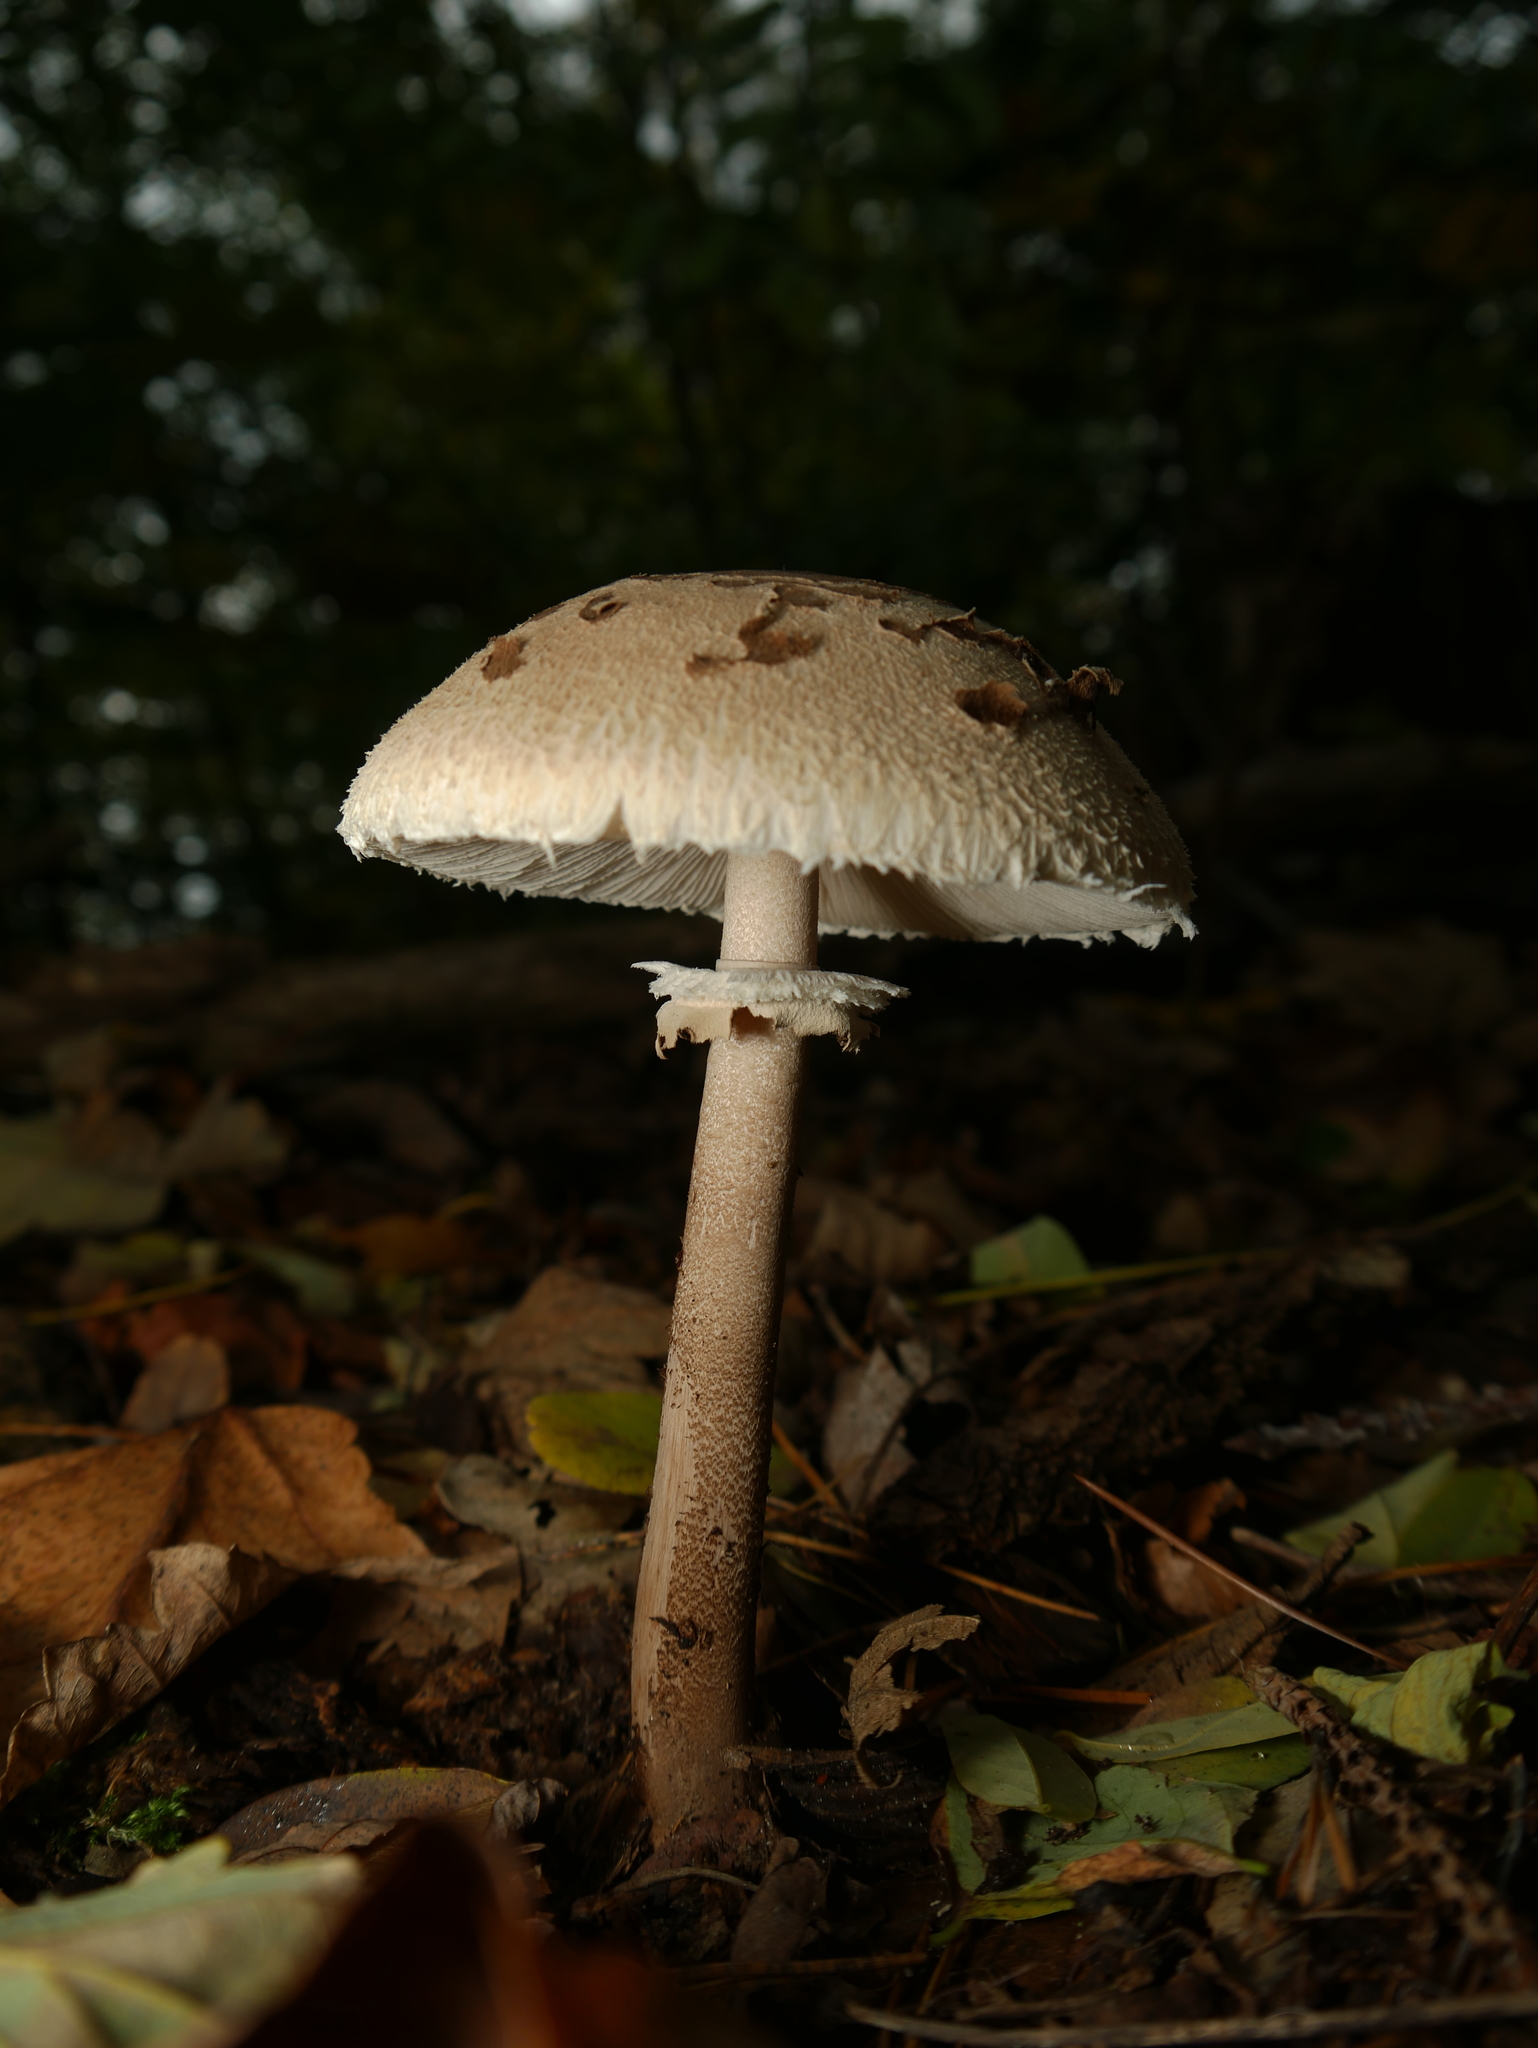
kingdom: Fungi
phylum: Basidiomycota
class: Agaricomycetes
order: Agaricales
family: Agaricaceae
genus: Macrolepiota
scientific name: Macrolepiota procera
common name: Parasol
